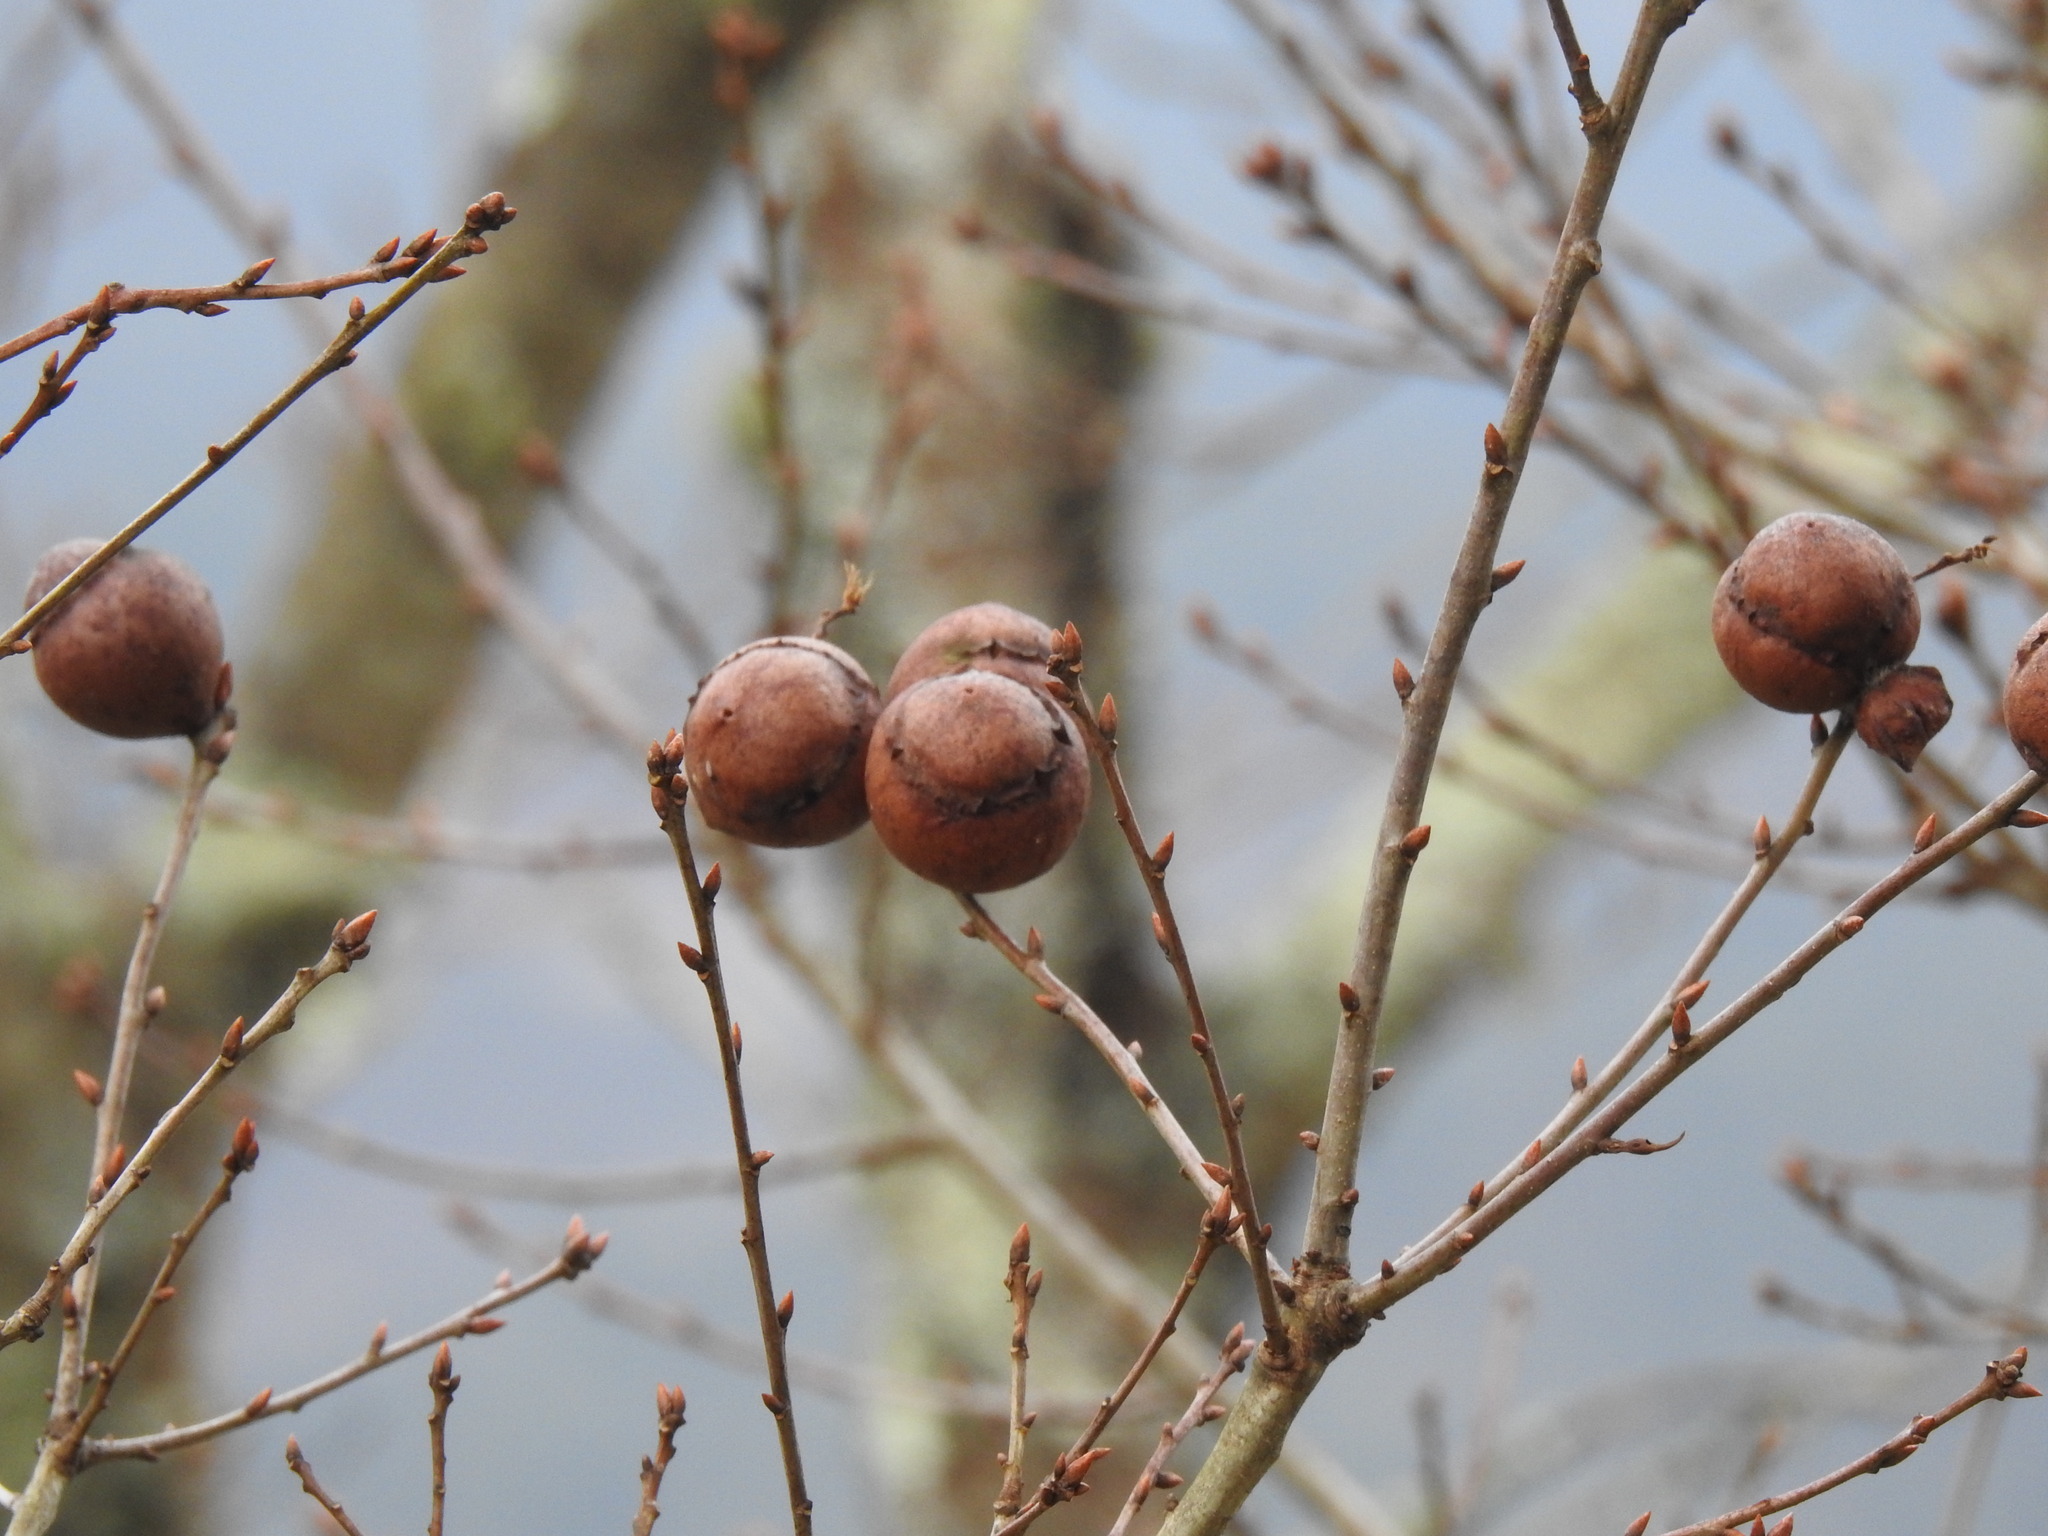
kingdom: Animalia
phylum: Arthropoda
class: Insecta
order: Hymenoptera
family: Cynipidae
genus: Andricus
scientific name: Andricus quercustozae
